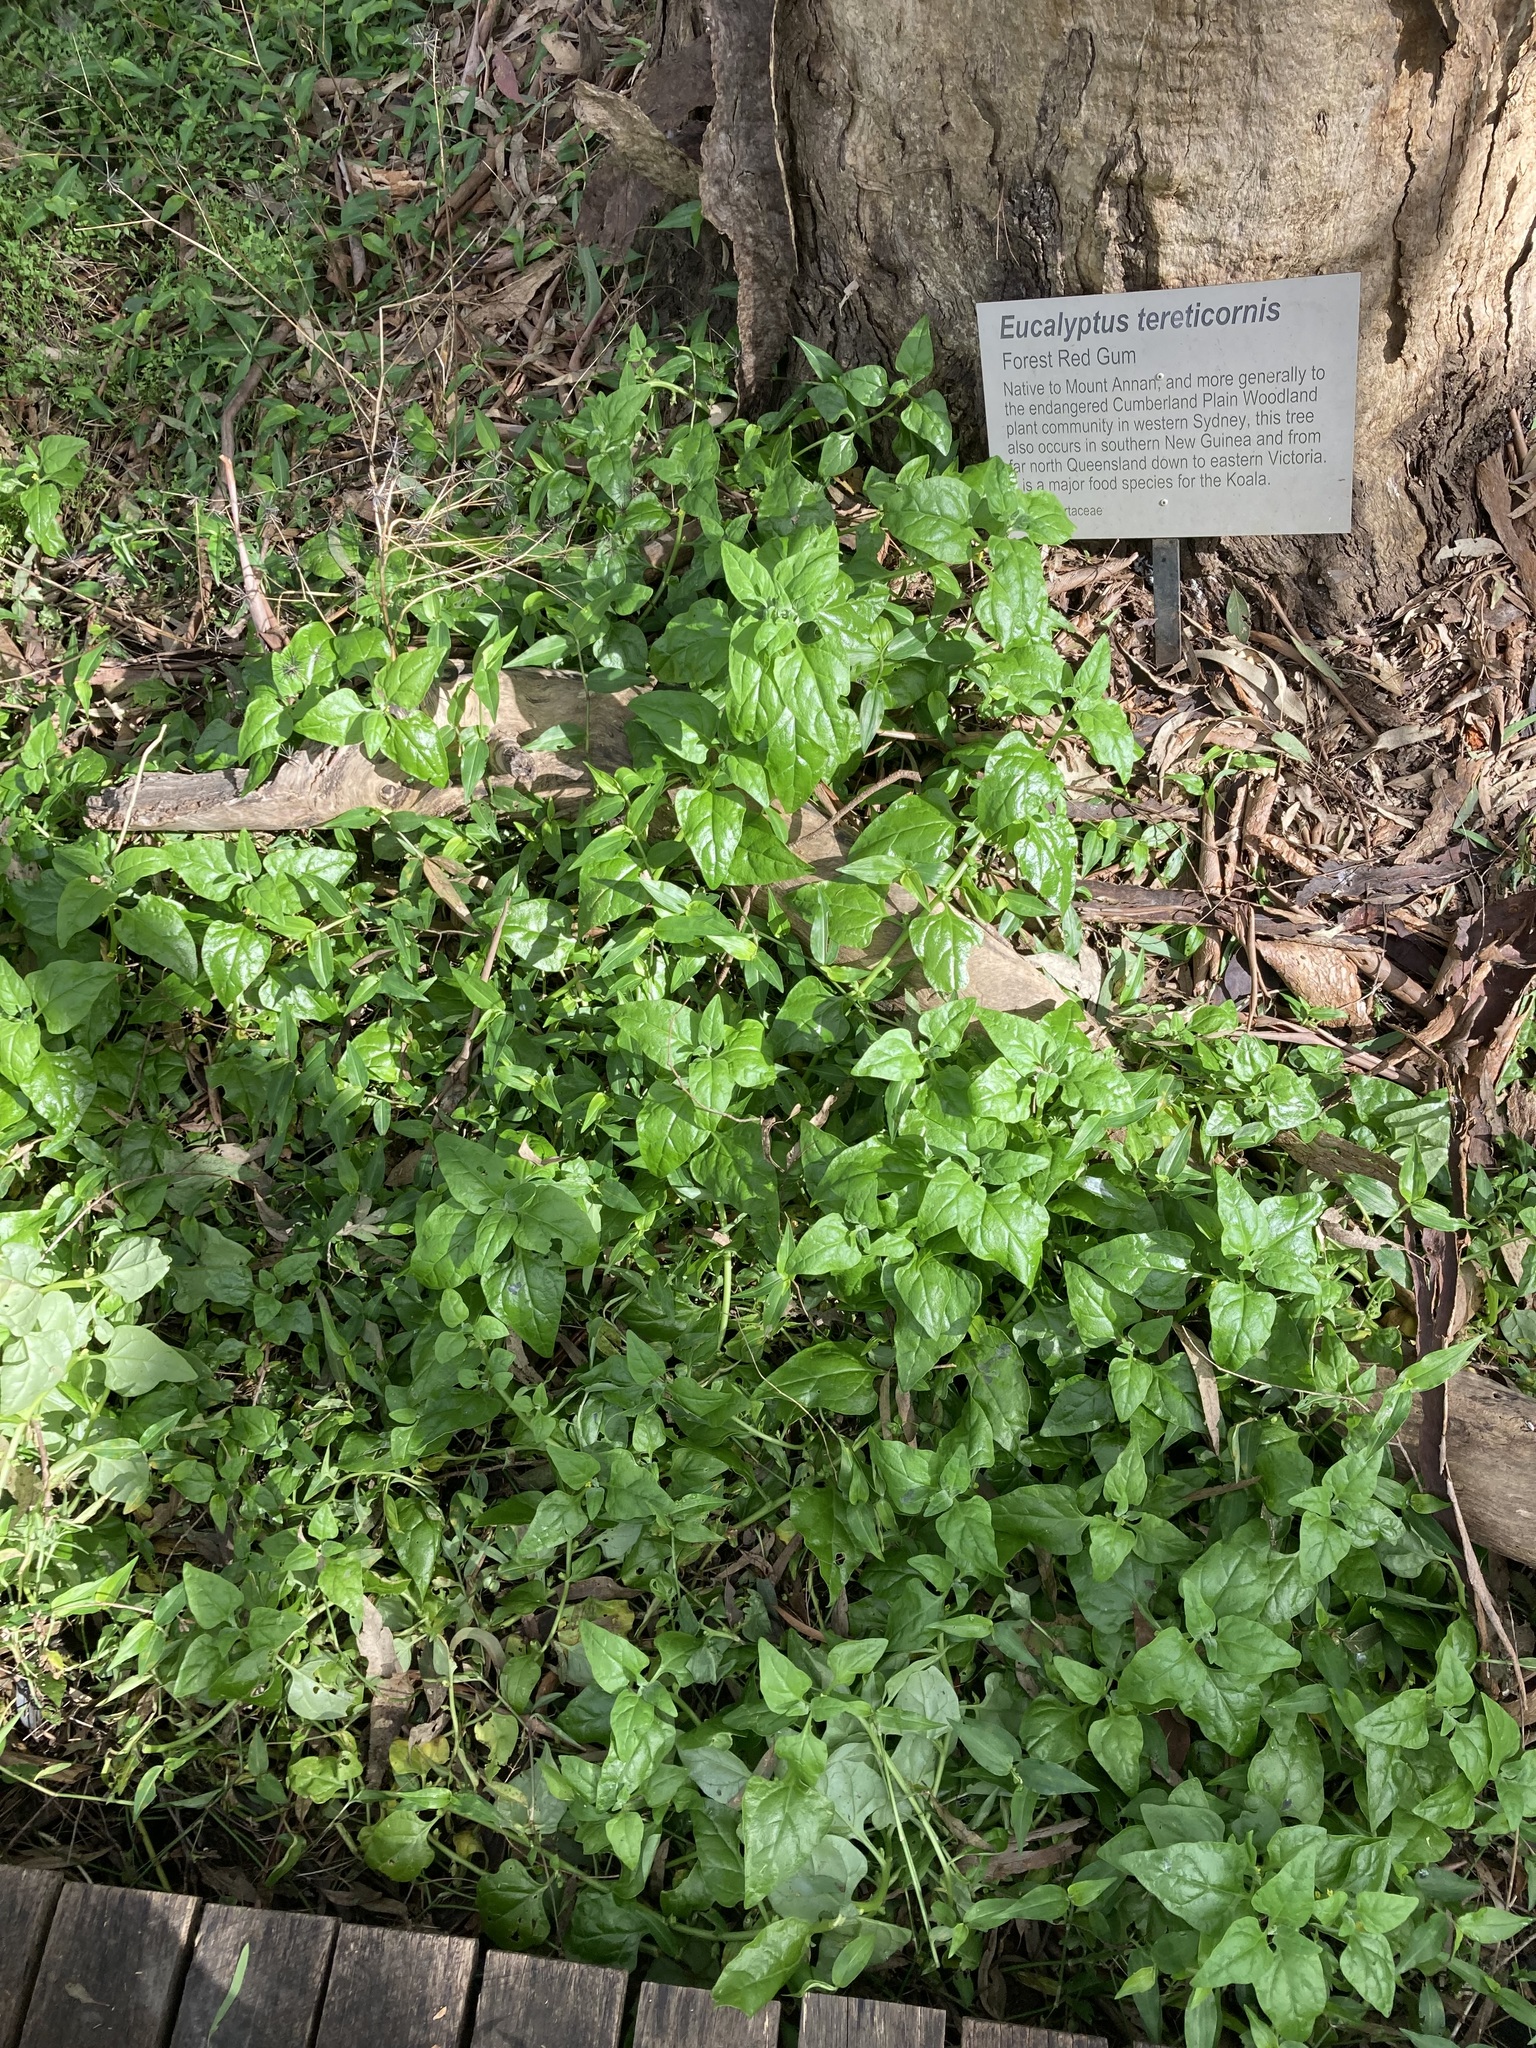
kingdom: Plantae
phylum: Tracheophyta
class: Magnoliopsida
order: Caryophyllales
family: Aizoaceae
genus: Tetragonia
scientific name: Tetragonia tetragonoides
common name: New zealand-spinach
